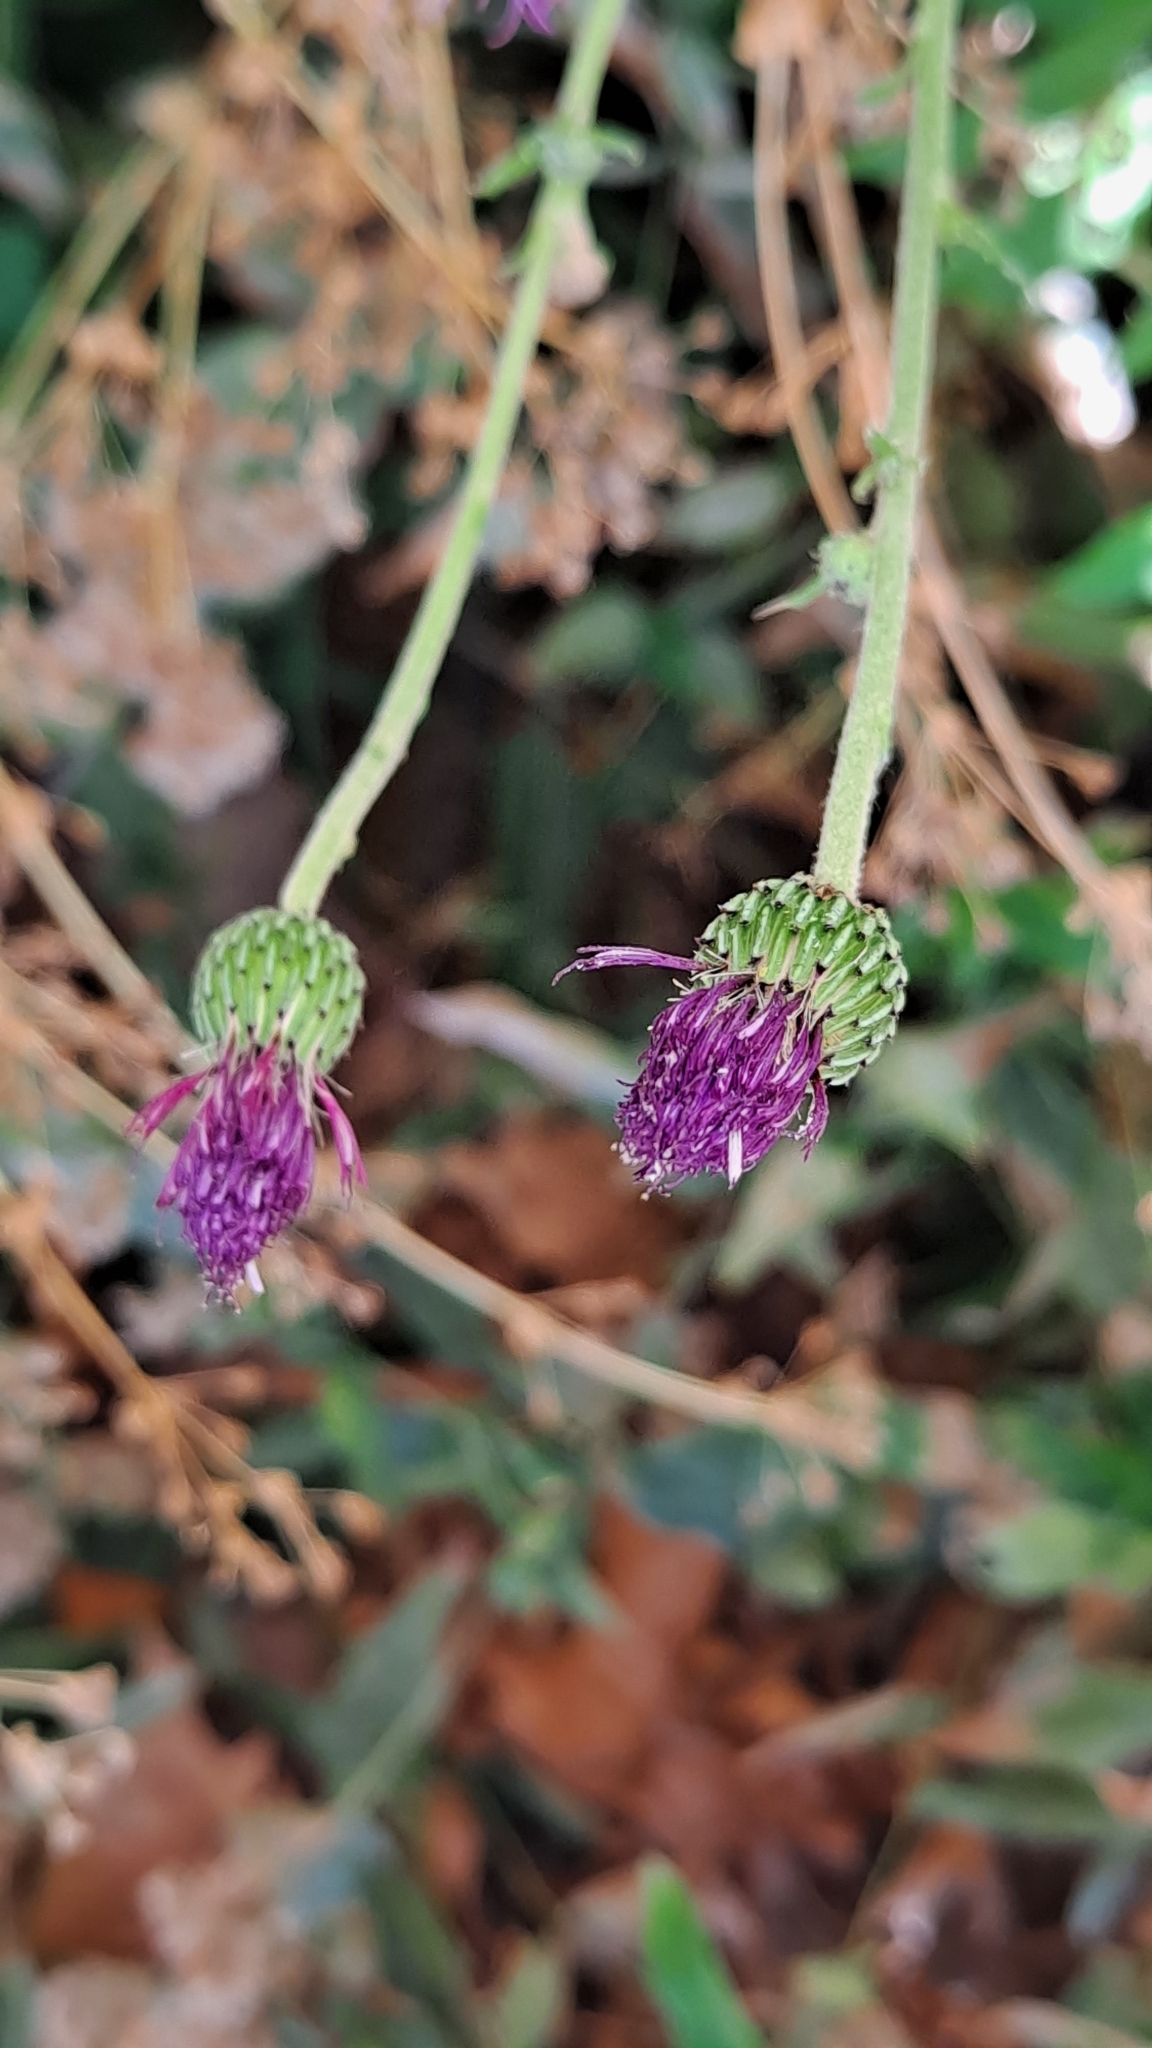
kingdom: Plantae
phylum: Tracheophyta
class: Magnoliopsida
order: Asterales
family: Asteraceae
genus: Mantisalca
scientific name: Mantisalca salmantica
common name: Dagger flower
